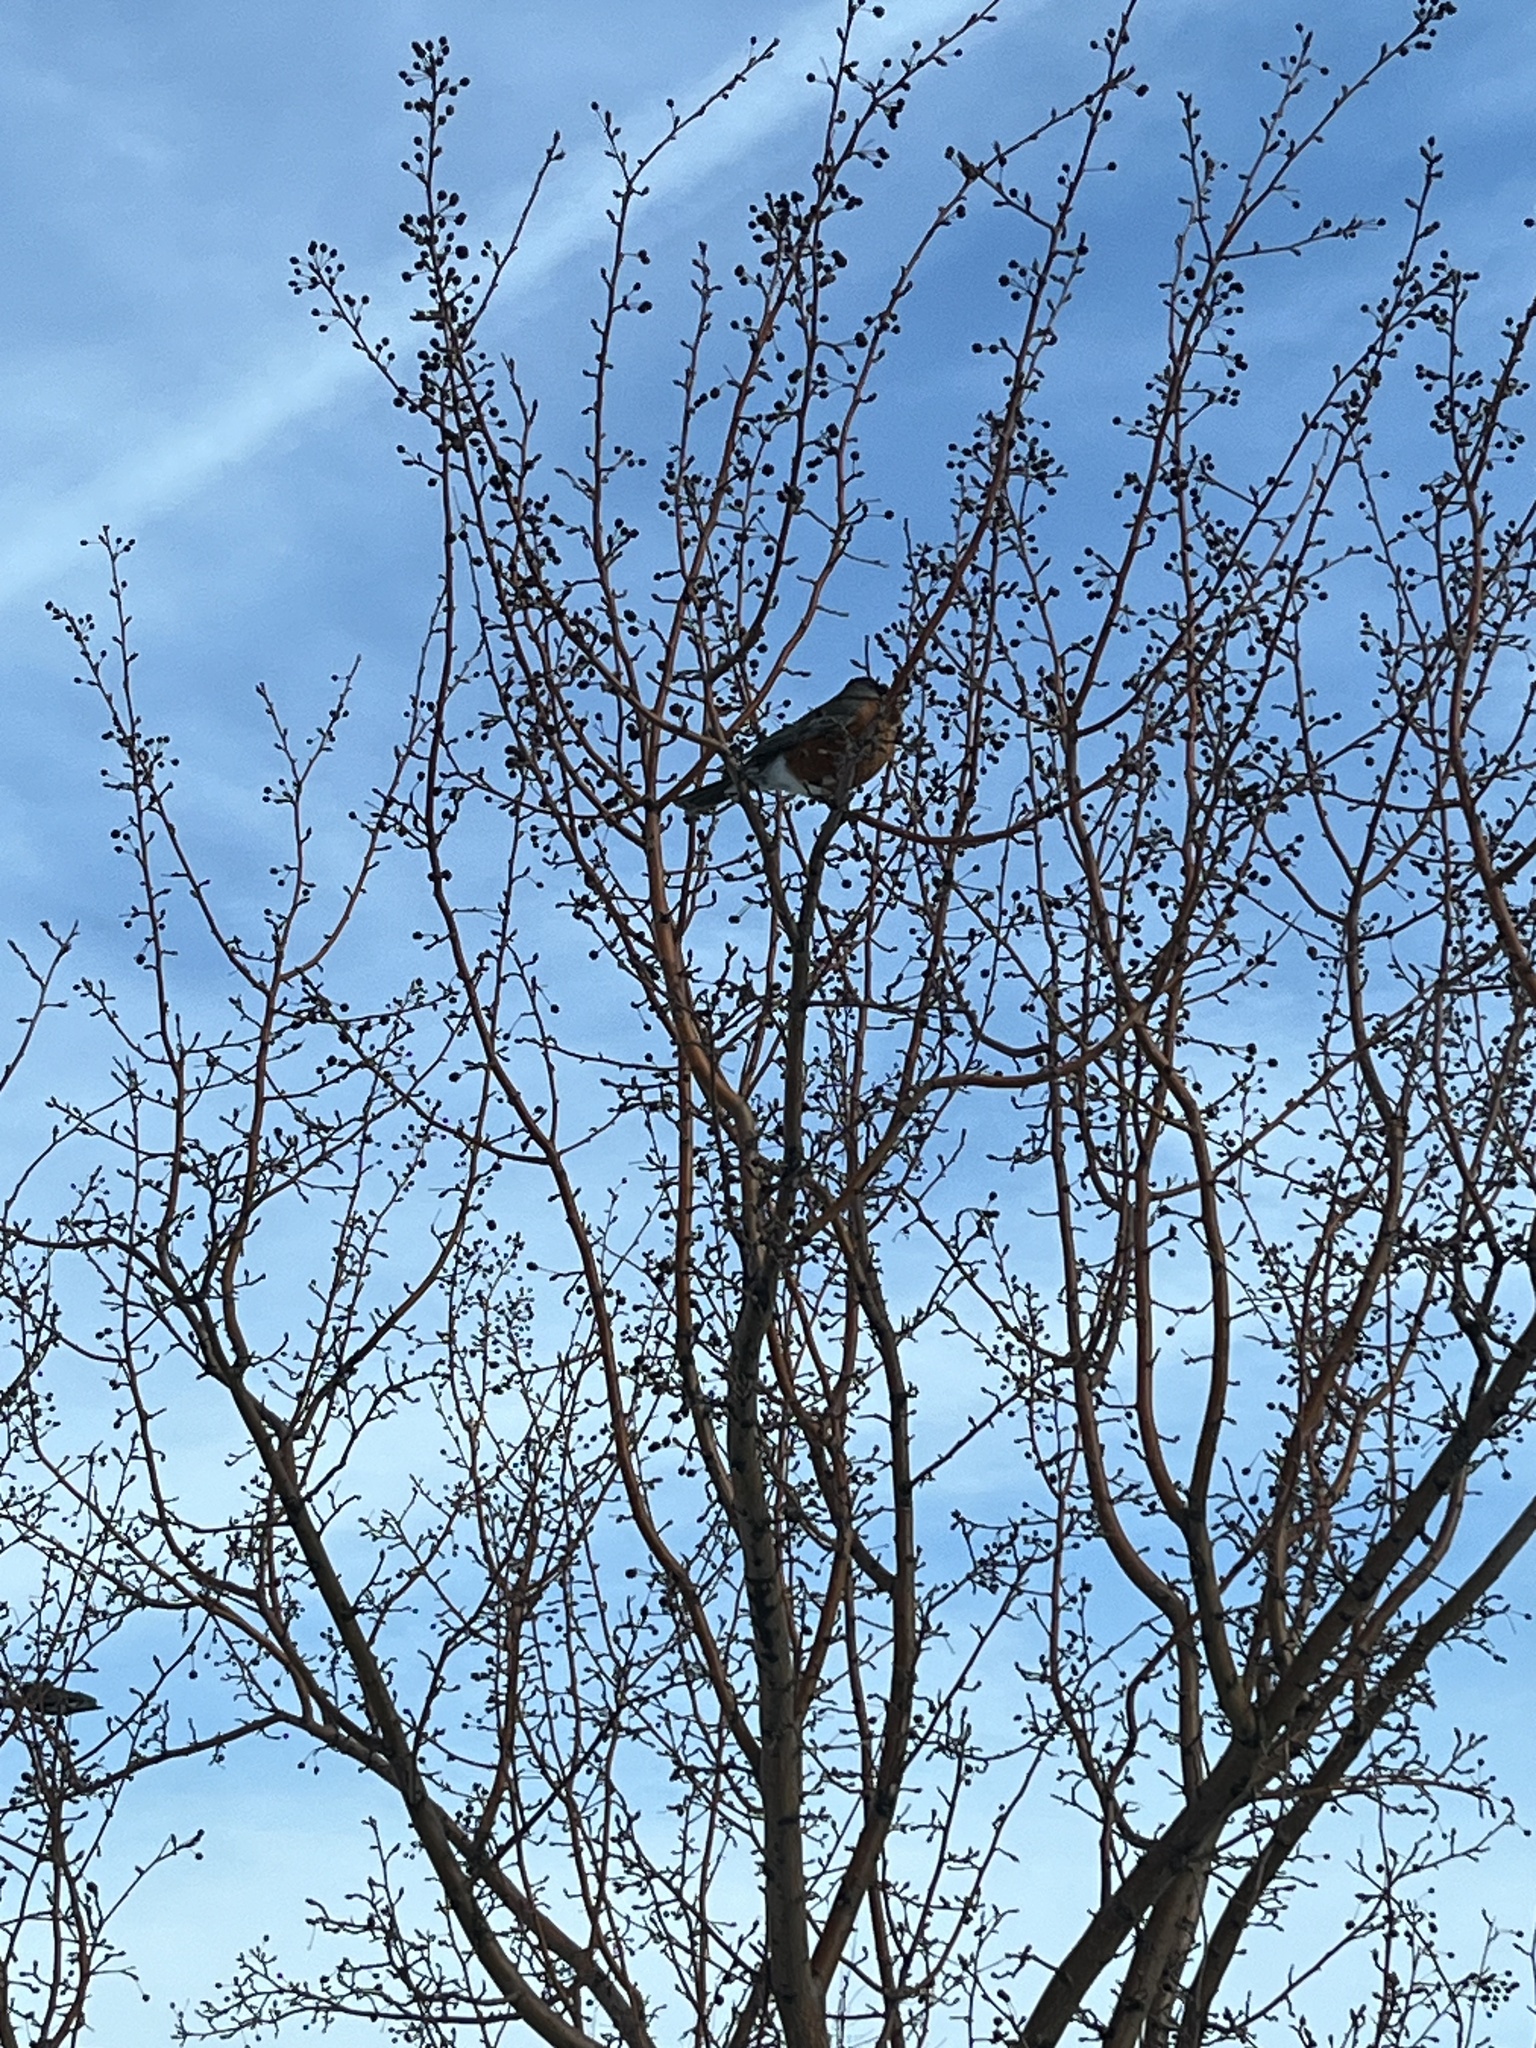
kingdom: Animalia
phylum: Chordata
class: Aves
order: Passeriformes
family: Turdidae
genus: Turdus
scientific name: Turdus migratorius
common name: American robin
